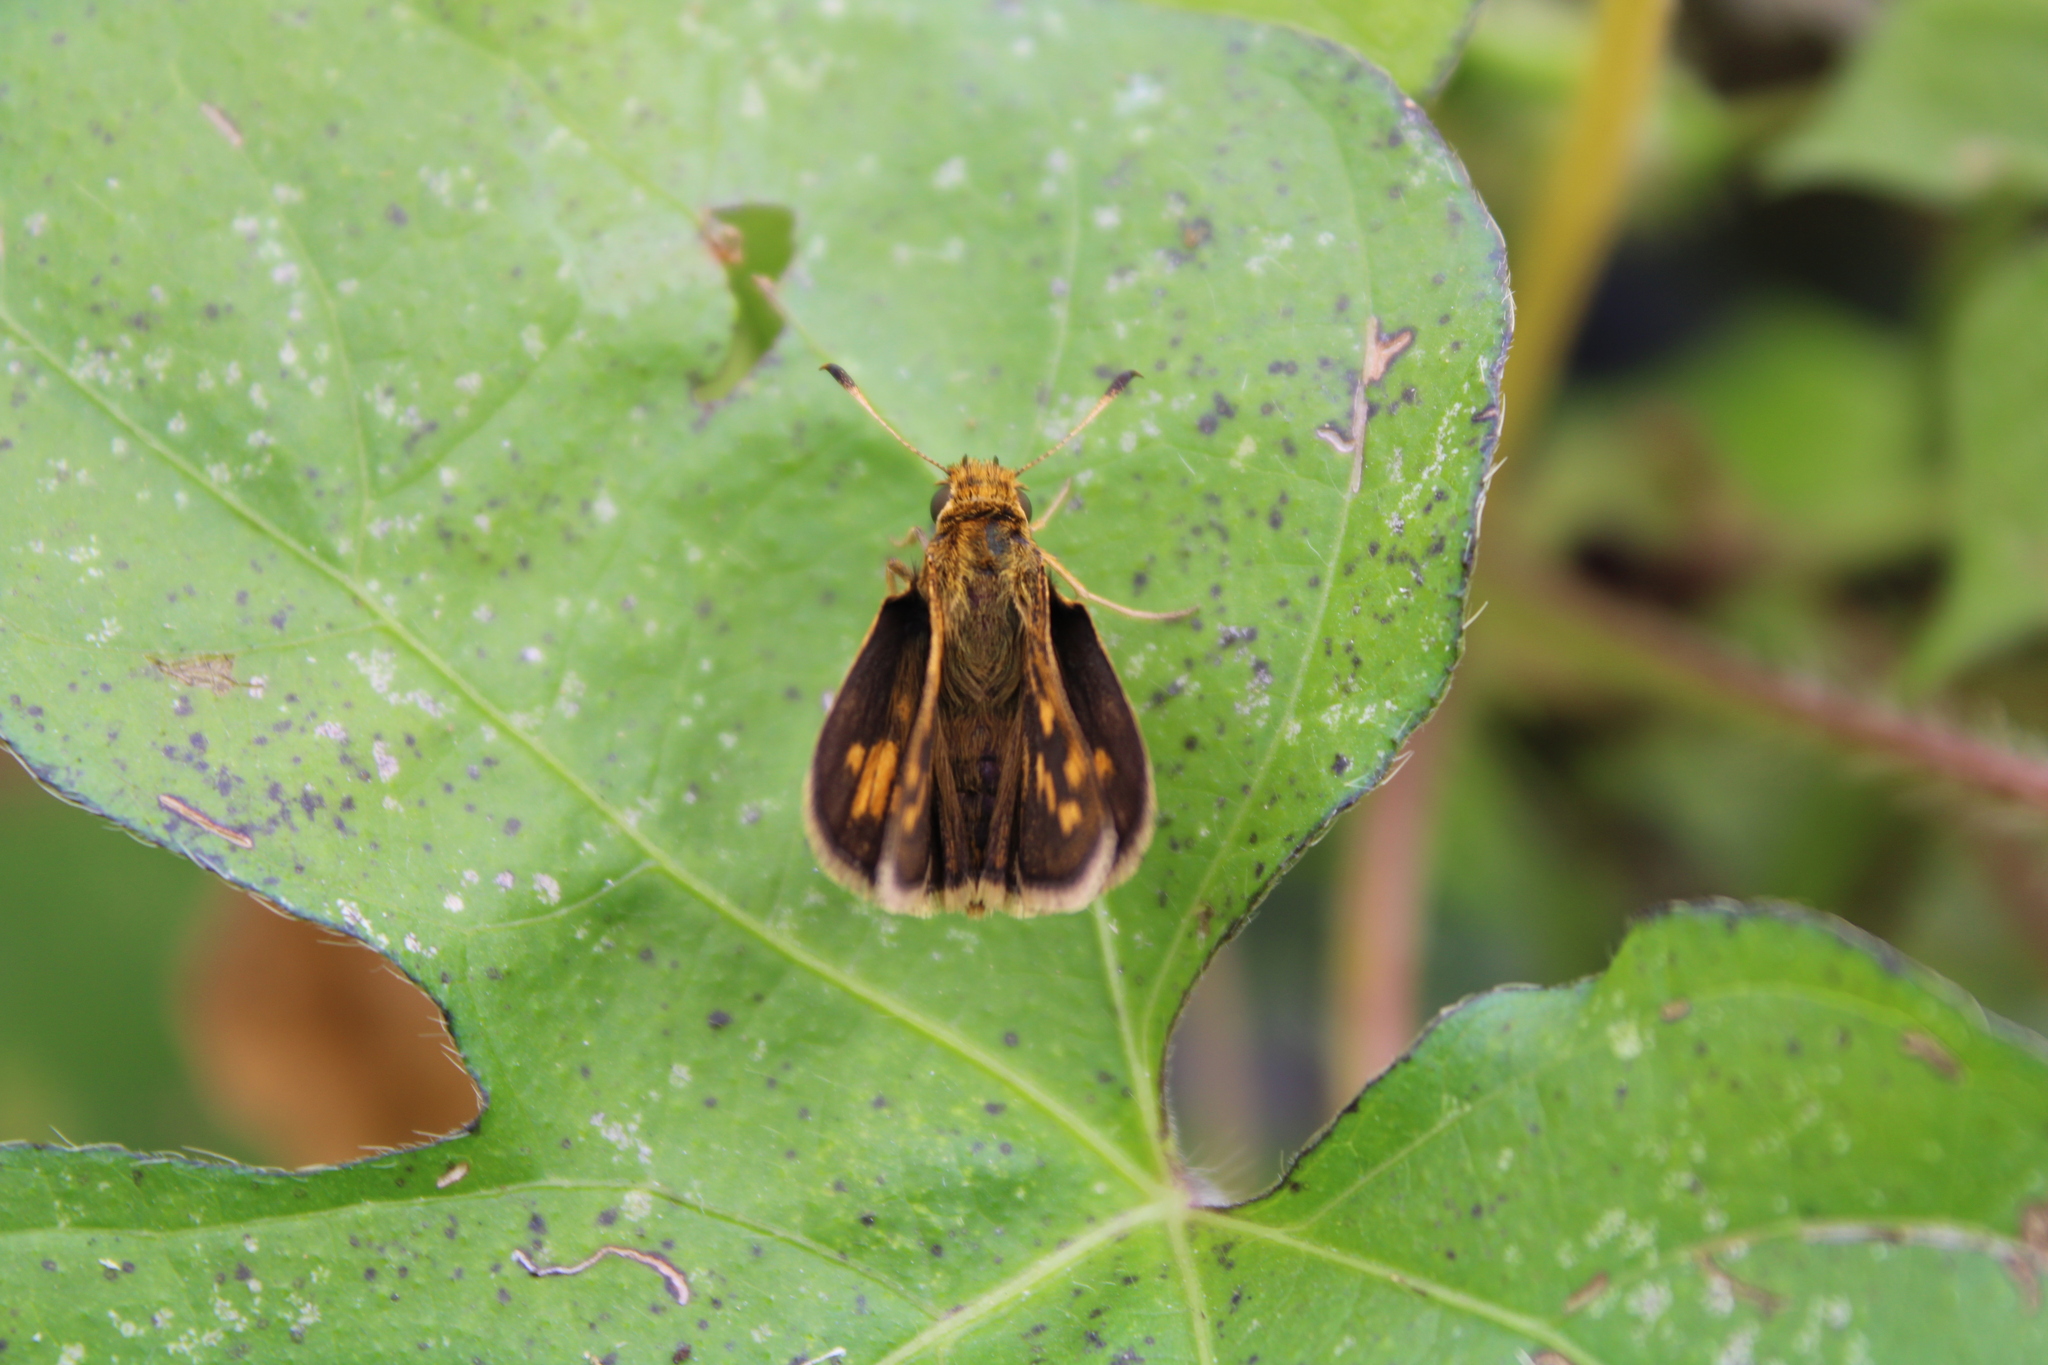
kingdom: Animalia
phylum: Arthropoda
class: Insecta
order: Lepidoptera
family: Hesperiidae
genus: Polites
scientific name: Polites coras
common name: Peck's skipper
